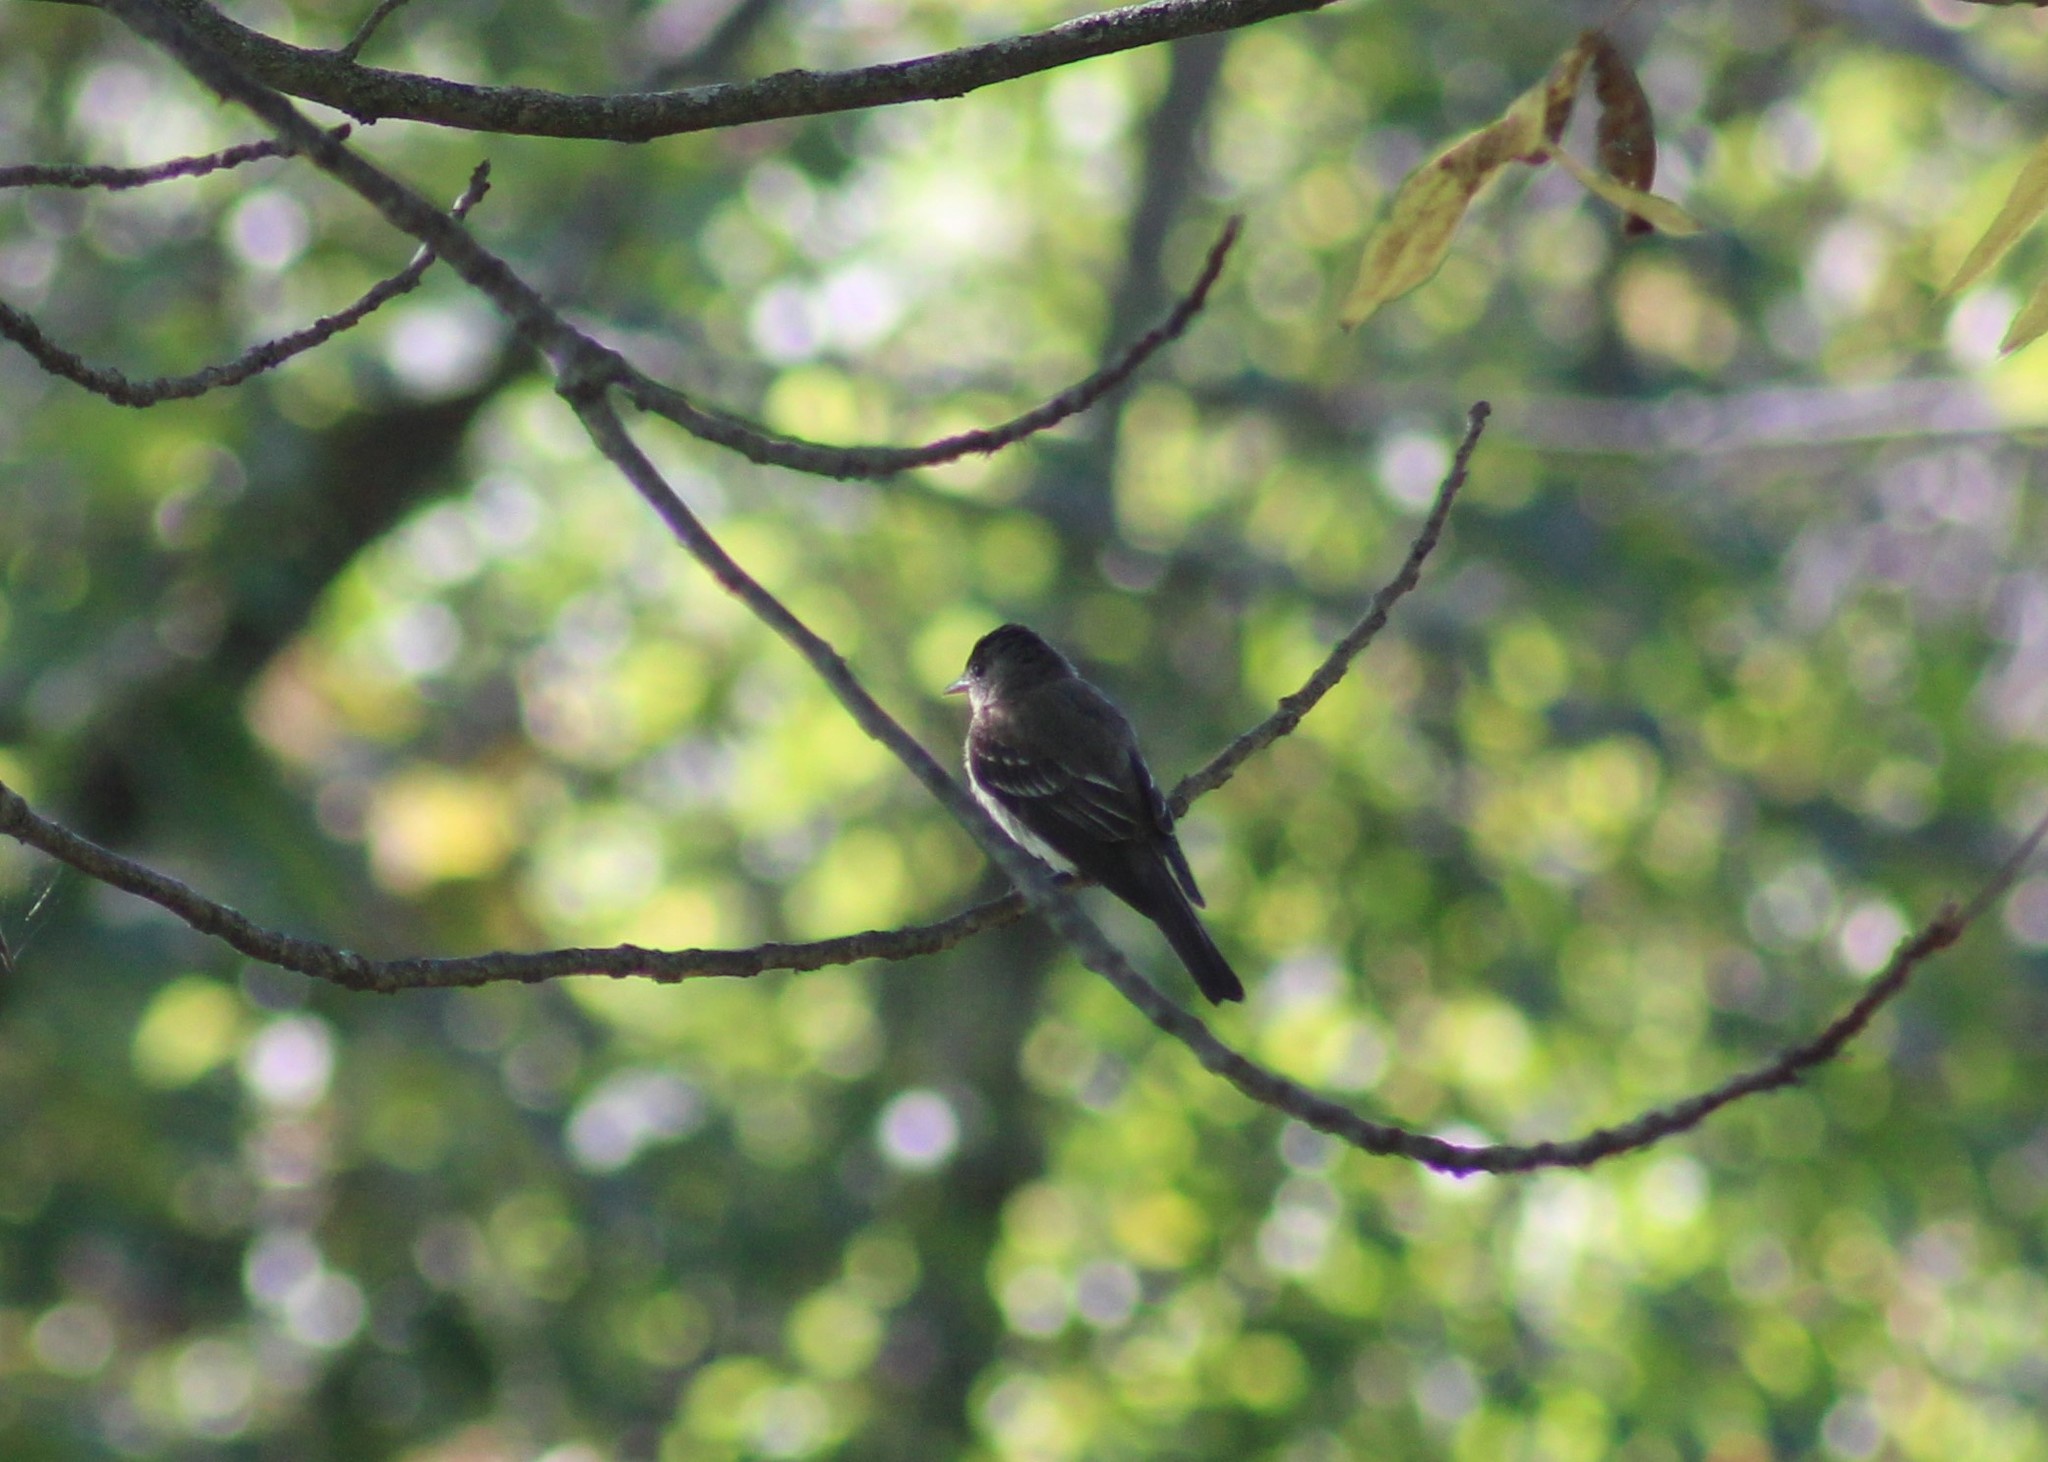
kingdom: Animalia
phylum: Chordata
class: Aves
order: Passeriformes
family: Tyrannidae
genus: Contopus
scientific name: Contopus virens
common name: Eastern wood-pewee
